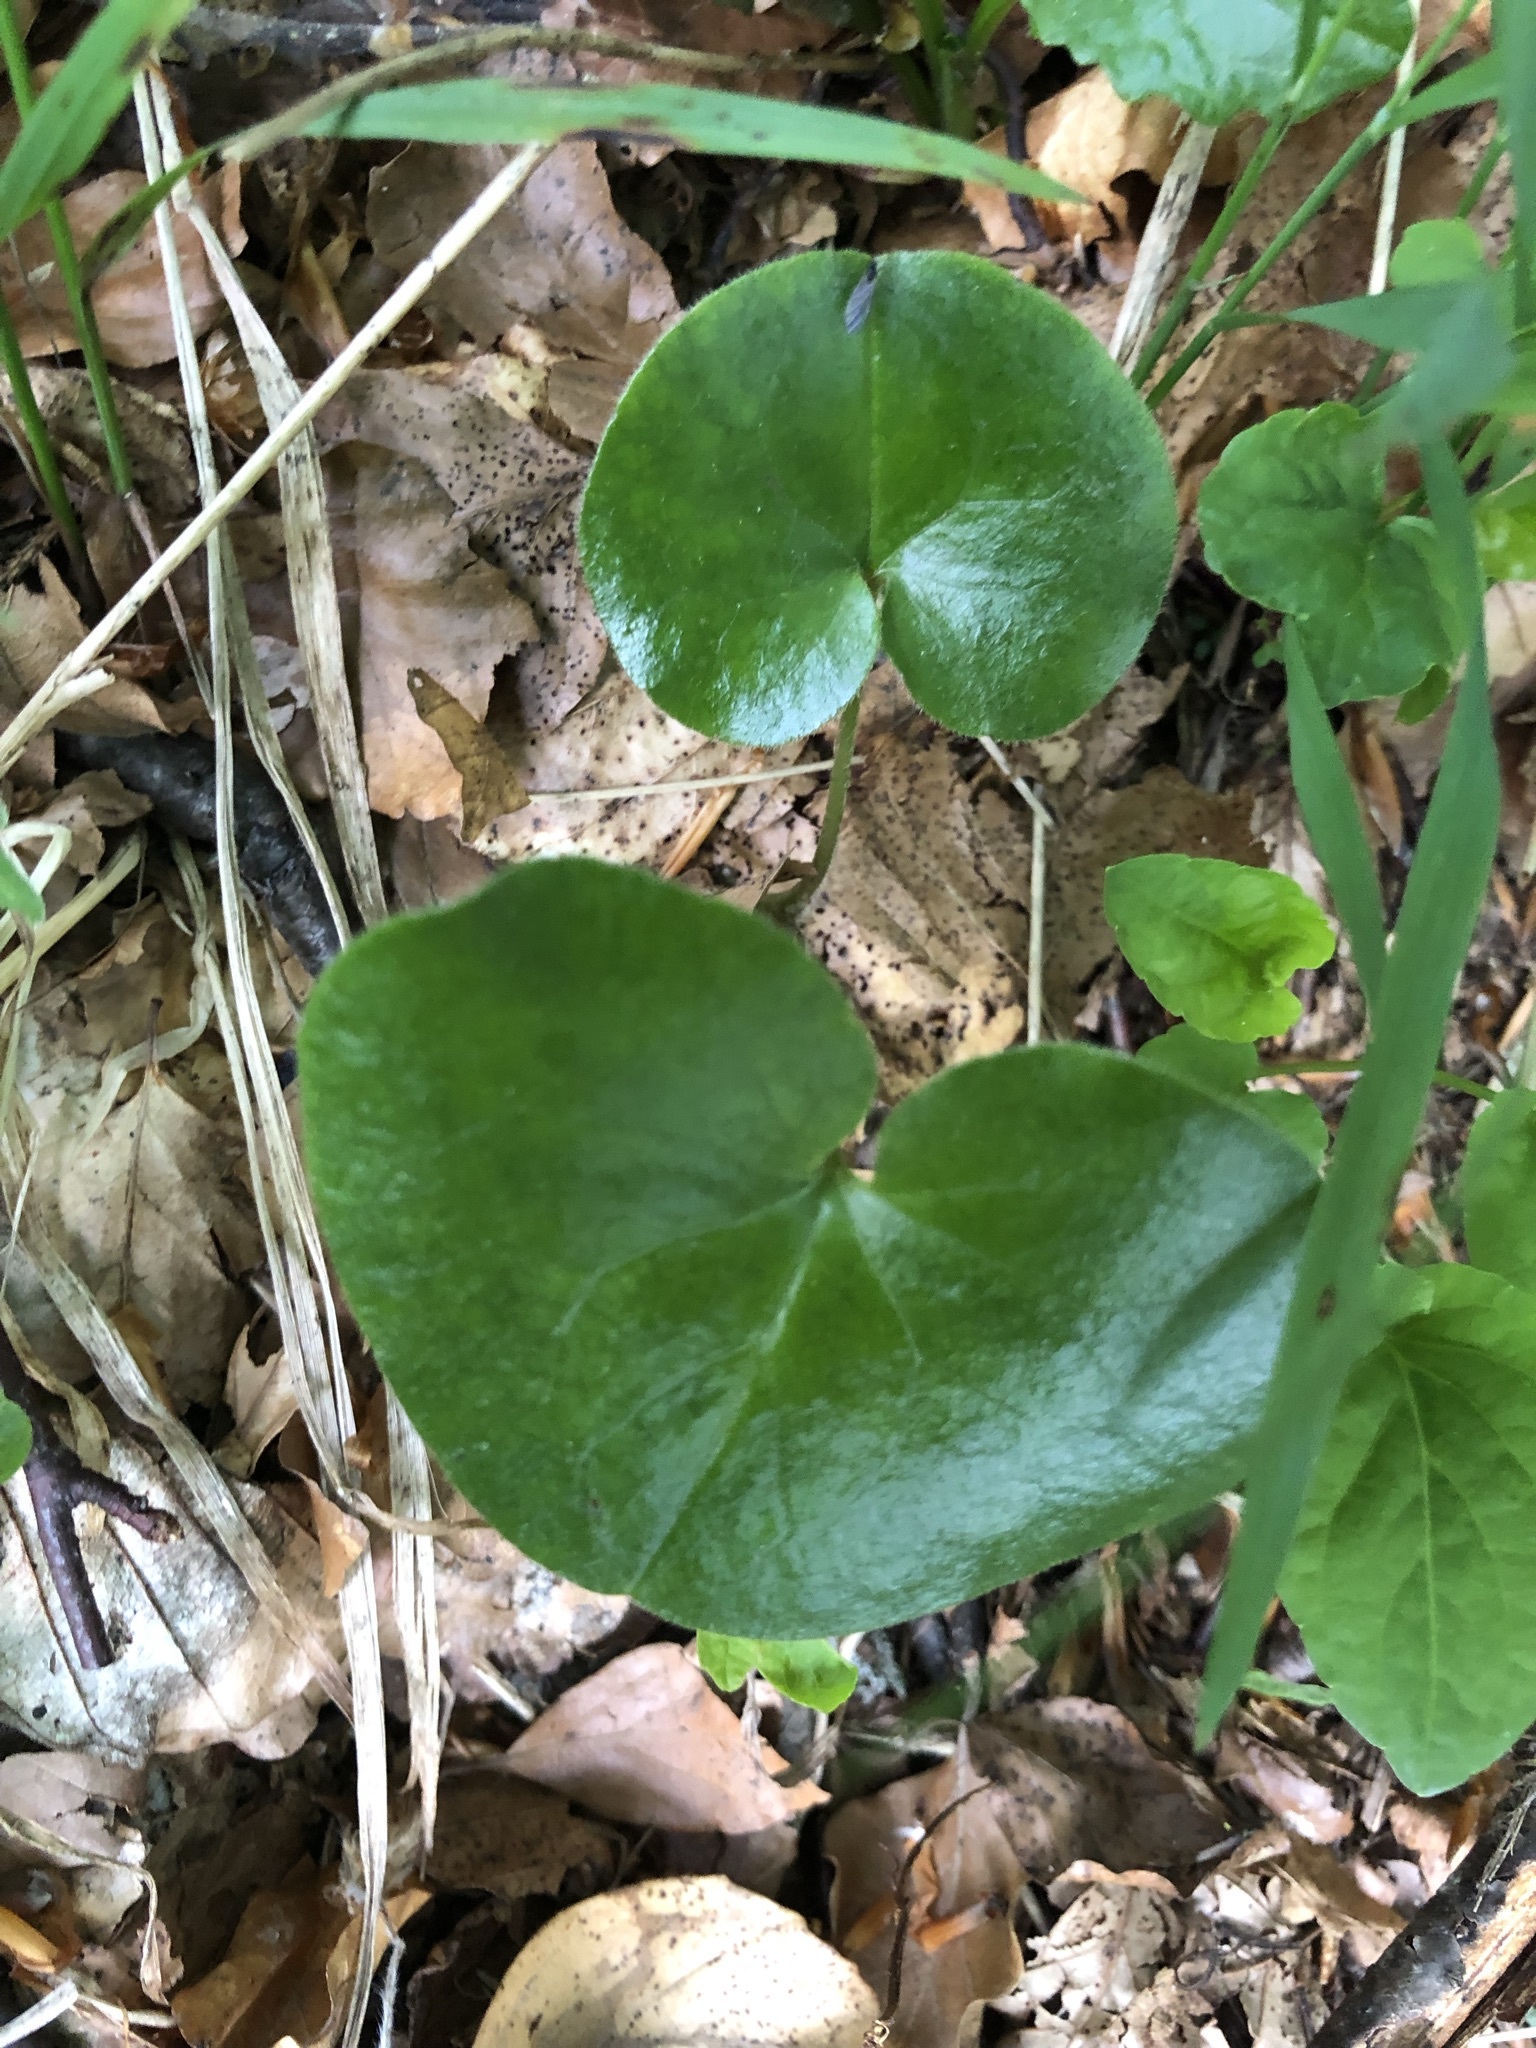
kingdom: Plantae
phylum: Tracheophyta
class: Magnoliopsida
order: Piperales
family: Aristolochiaceae
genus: Asarum
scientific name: Asarum europaeum
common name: Asarabacca
